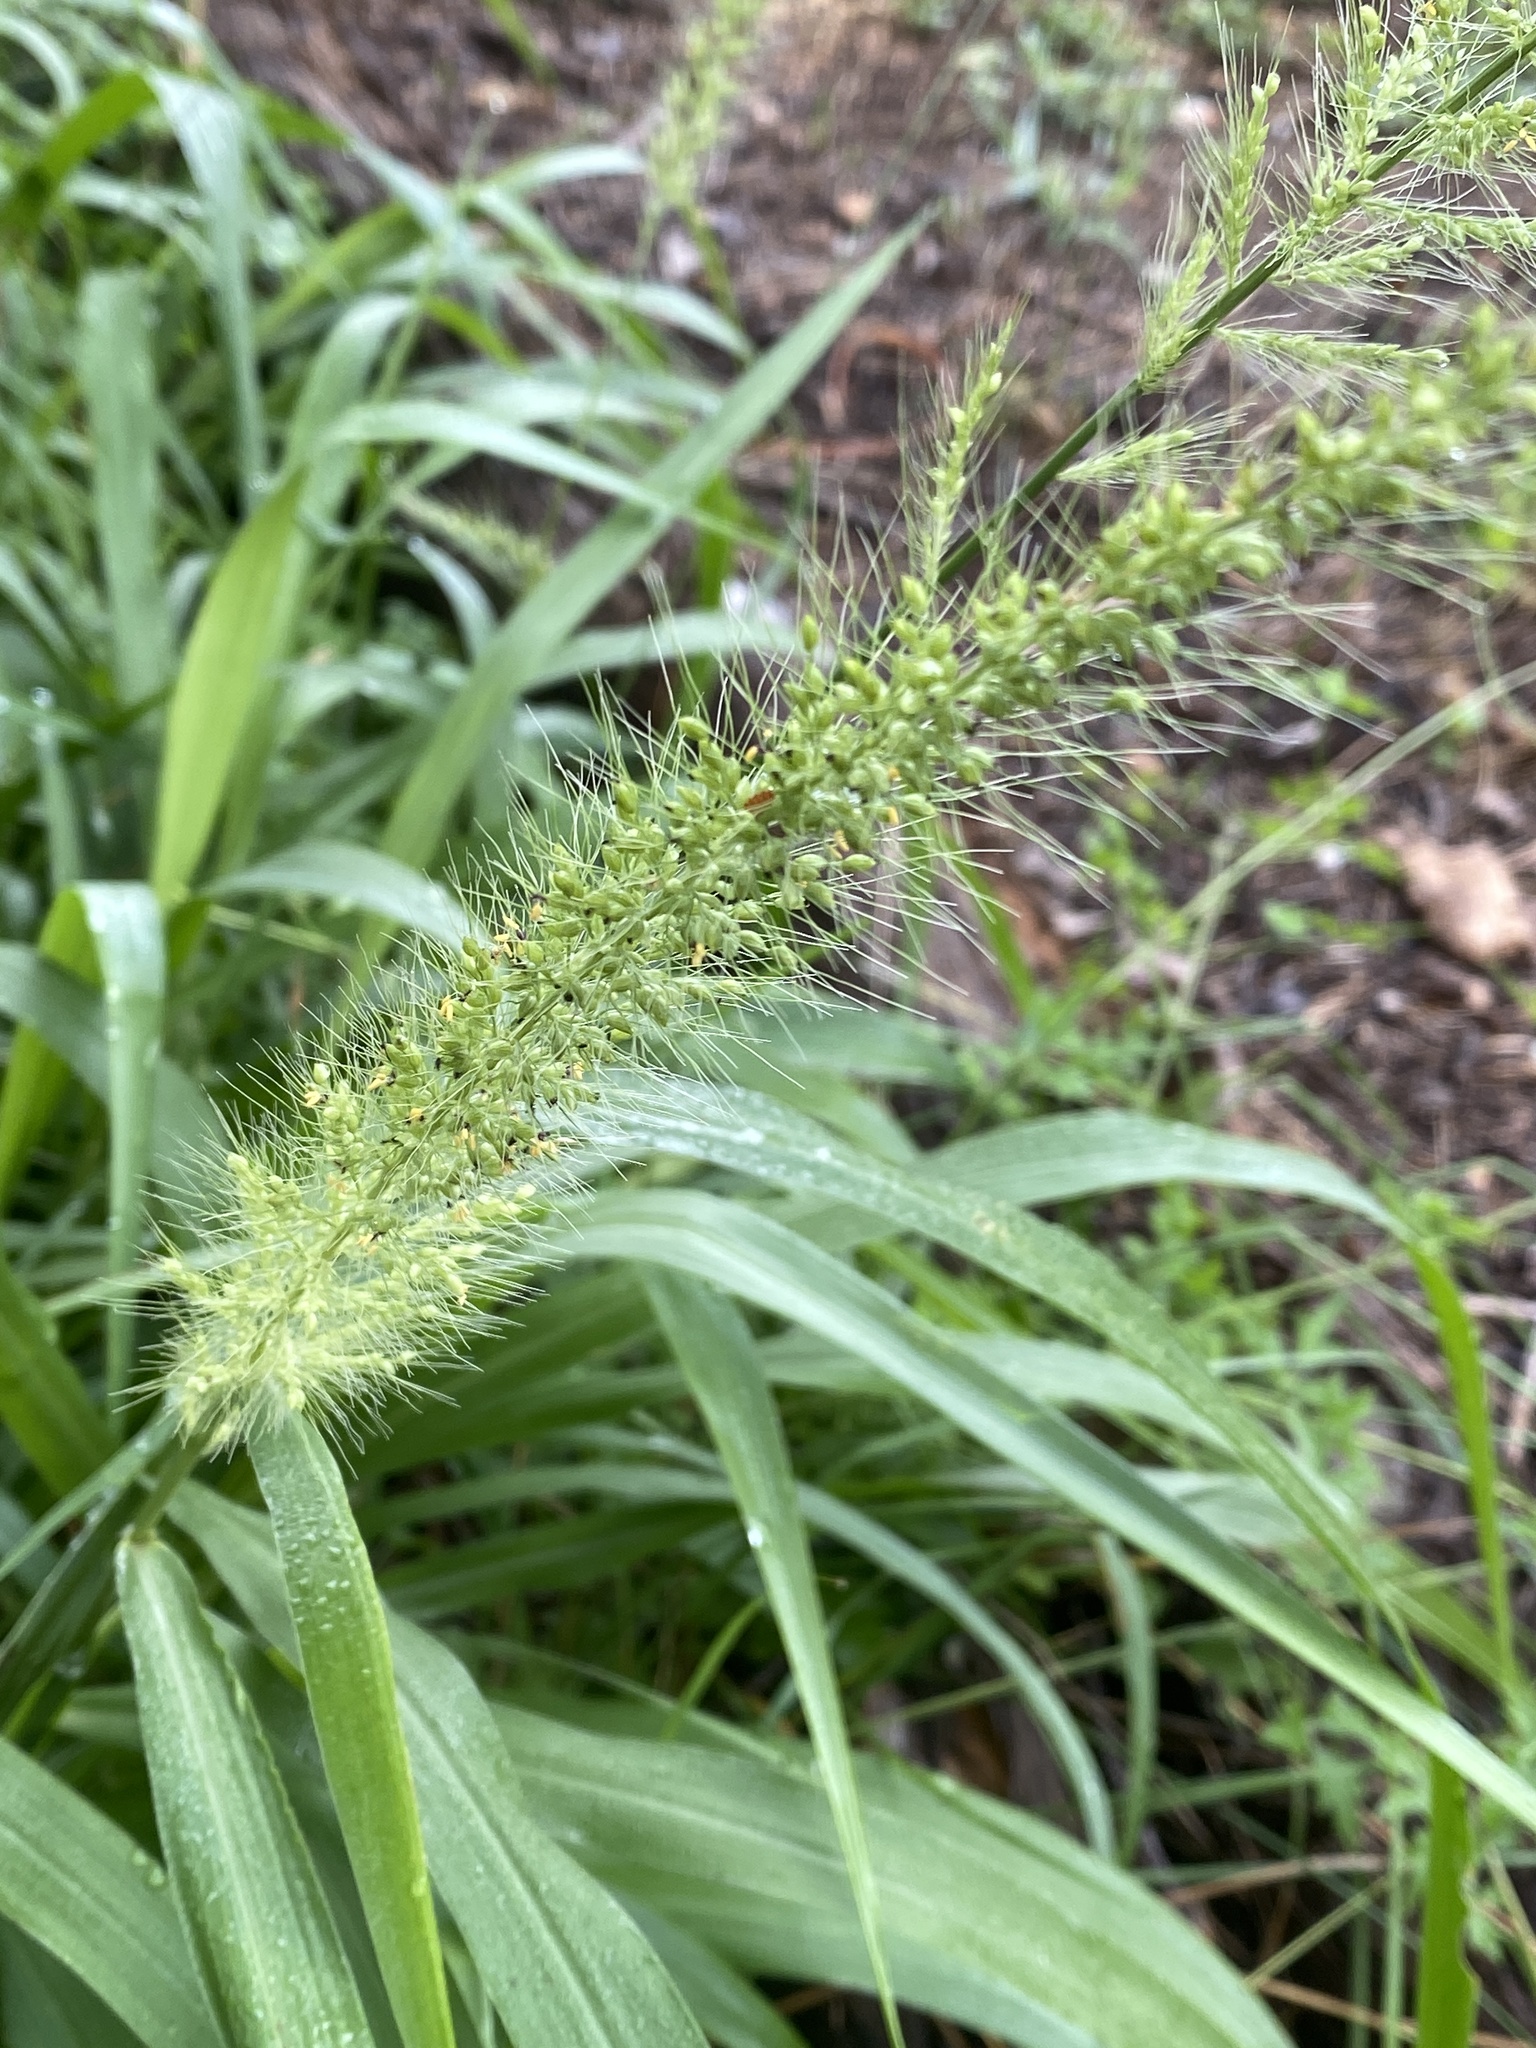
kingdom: Plantae
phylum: Tracheophyta
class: Liliopsida
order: Poales
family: Poaceae
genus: Setaria
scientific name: Setaria scheelei
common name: Southwestern bristle grass
